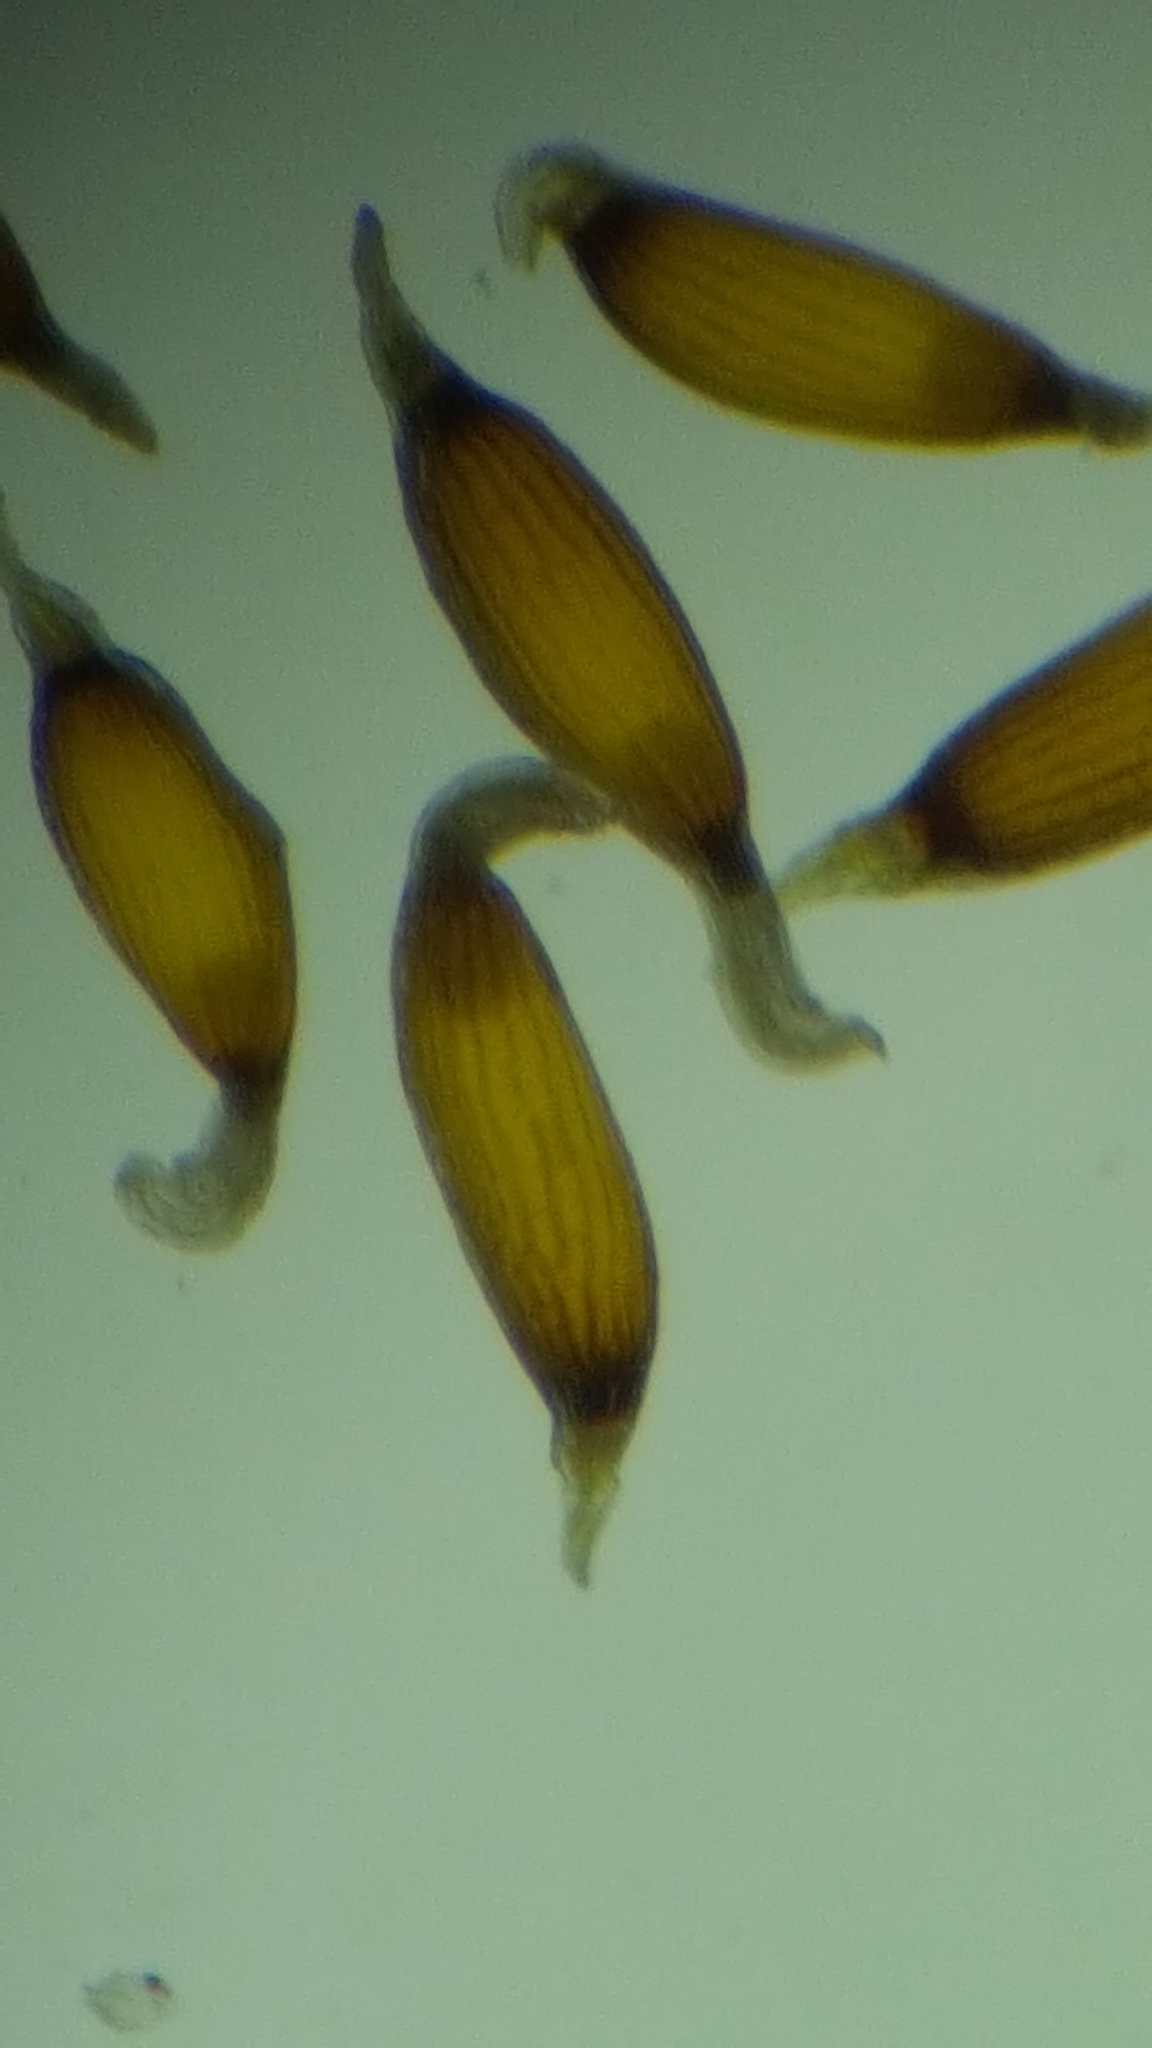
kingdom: Plantae
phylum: Tracheophyta
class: Liliopsida
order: Poales
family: Juncaceae
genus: Juncus
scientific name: Juncus tweedyi
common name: Narrow-panicled rush
